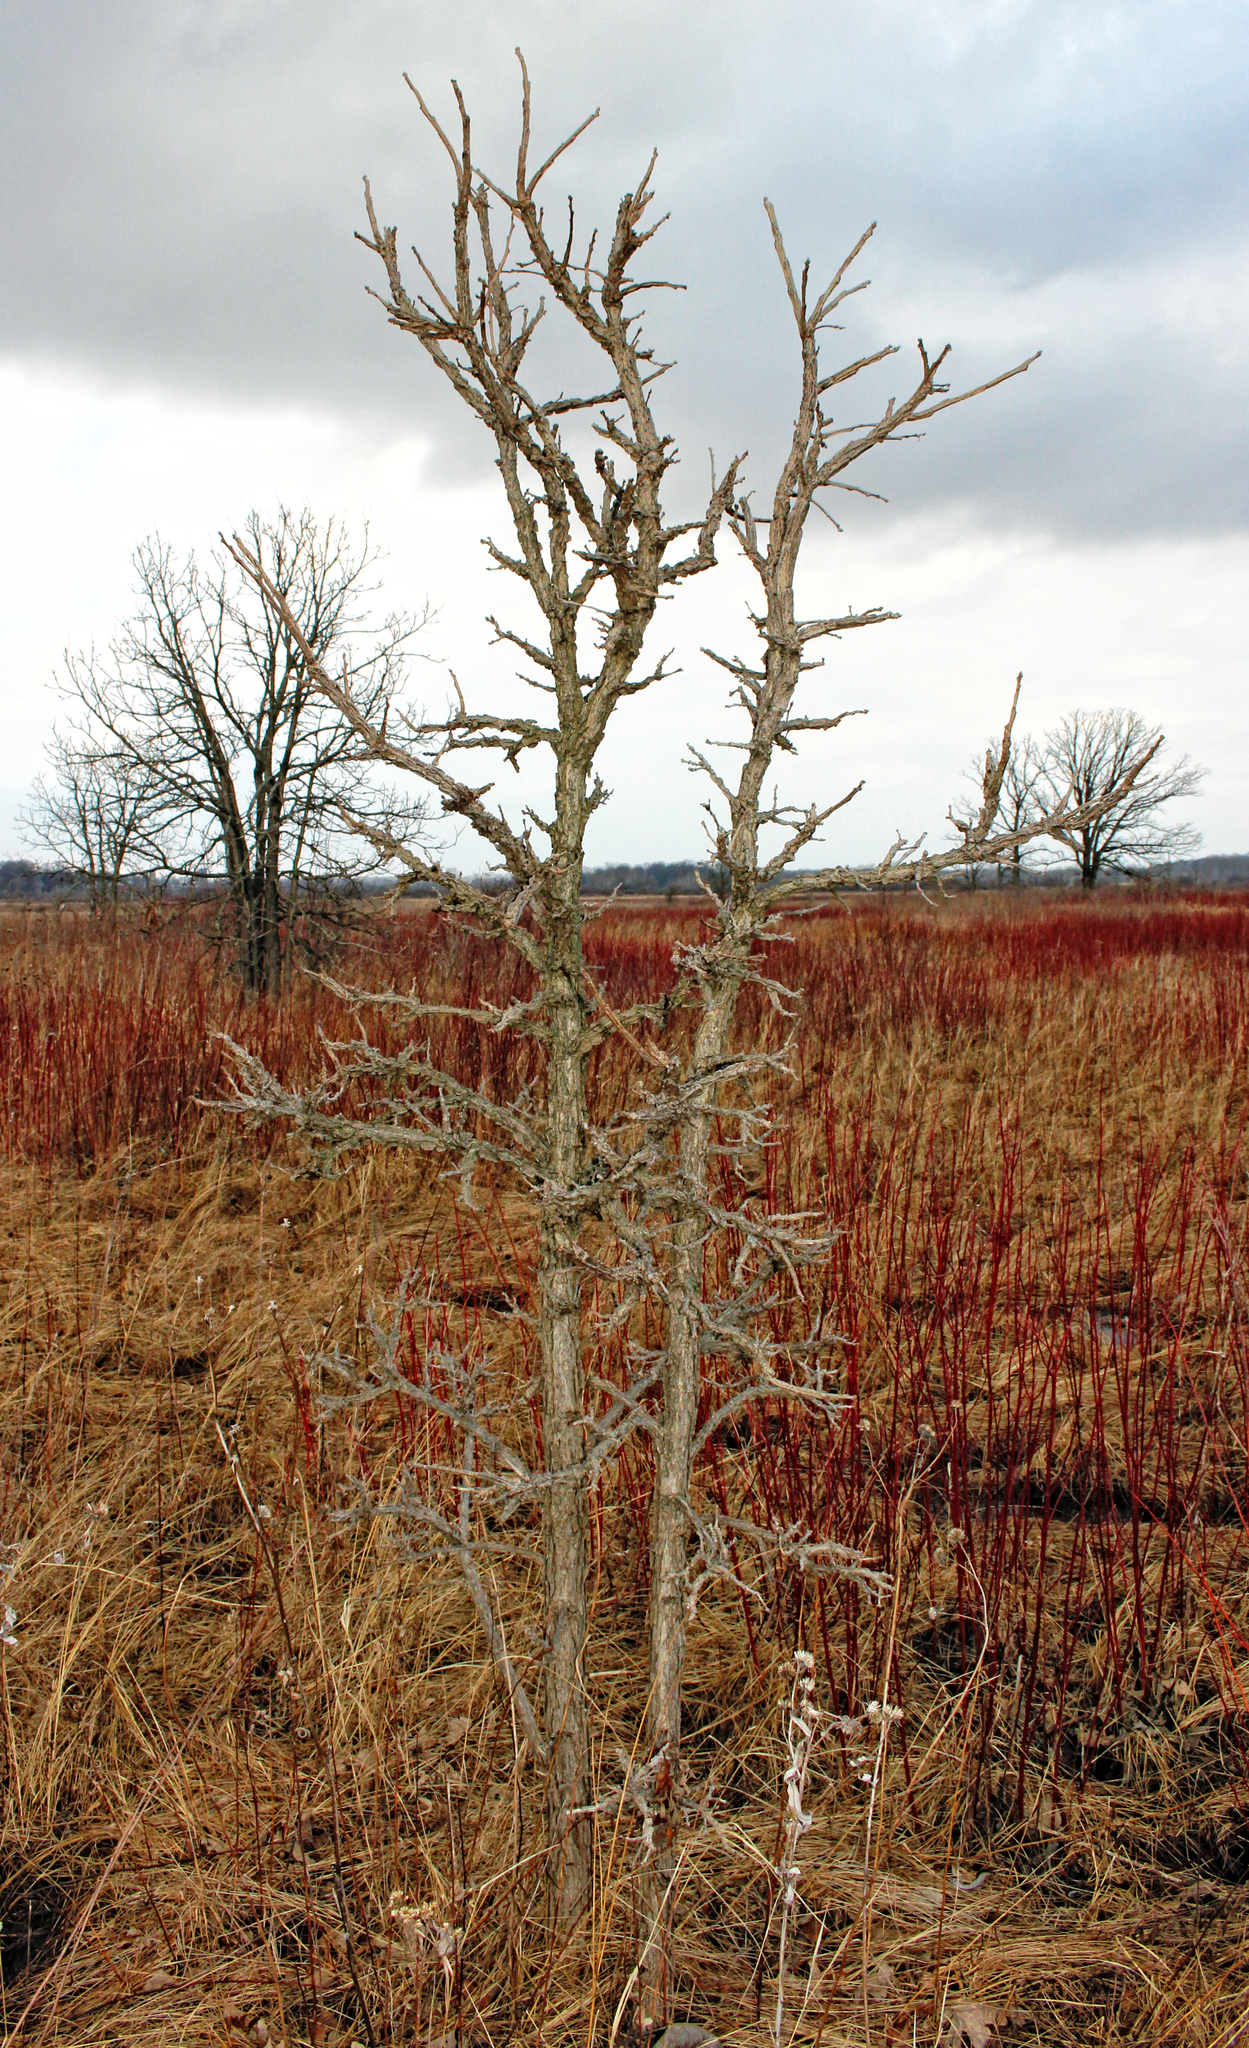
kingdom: Plantae
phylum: Tracheophyta
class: Magnoliopsida
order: Fagales
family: Fagaceae
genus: Quercus
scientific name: Quercus macrocarpa
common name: Bur oak
